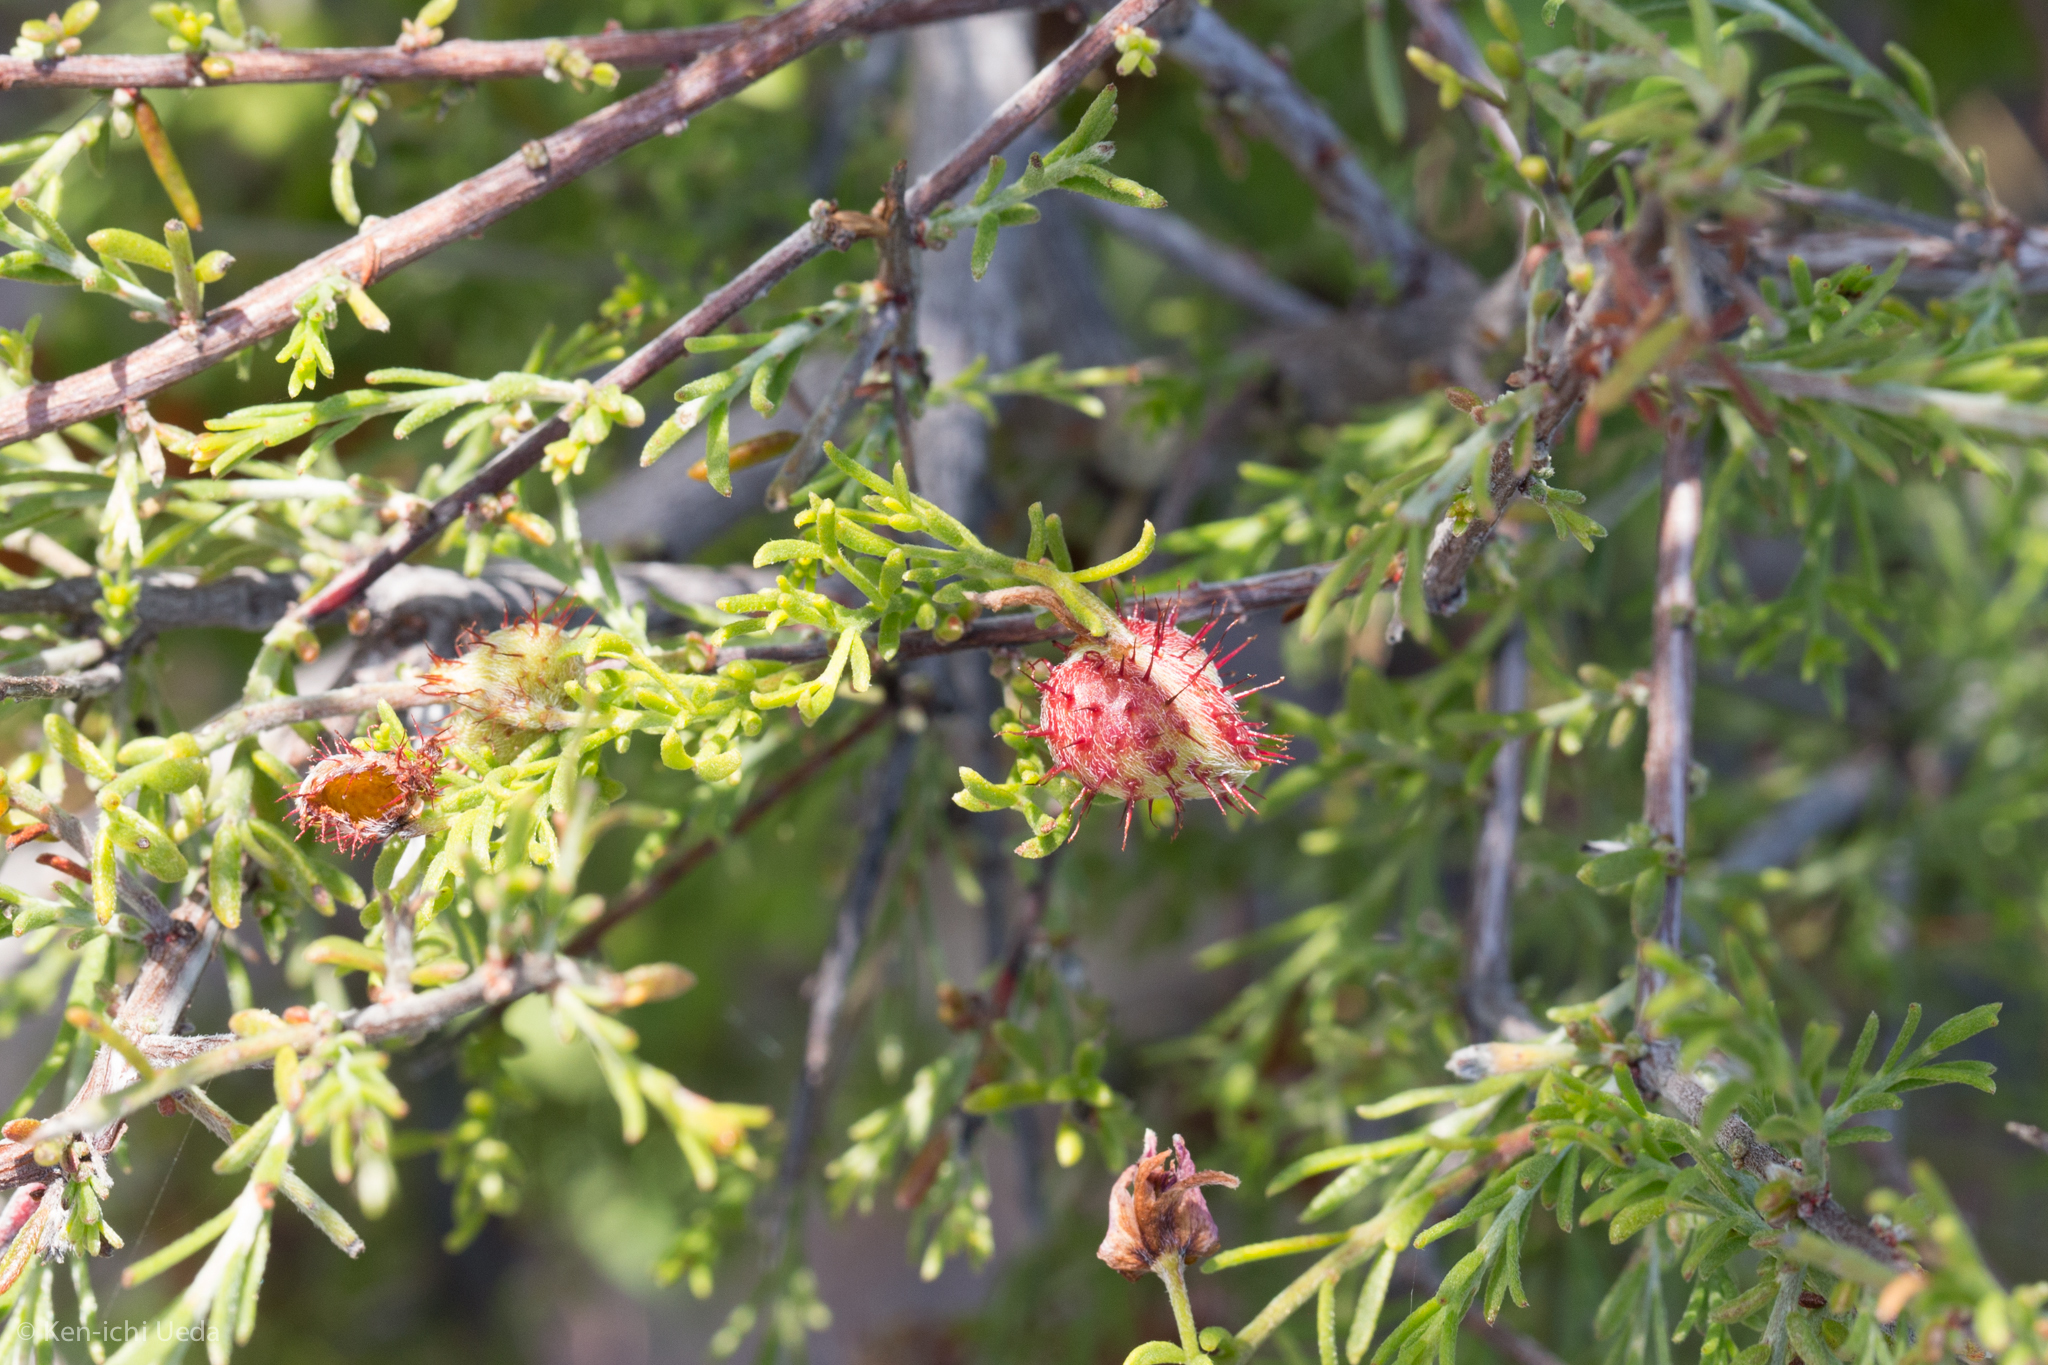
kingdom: Plantae
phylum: Tracheophyta
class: Magnoliopsida
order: Zygophyllales
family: Krameriaceae
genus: Krameria
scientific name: Krameria erecta
